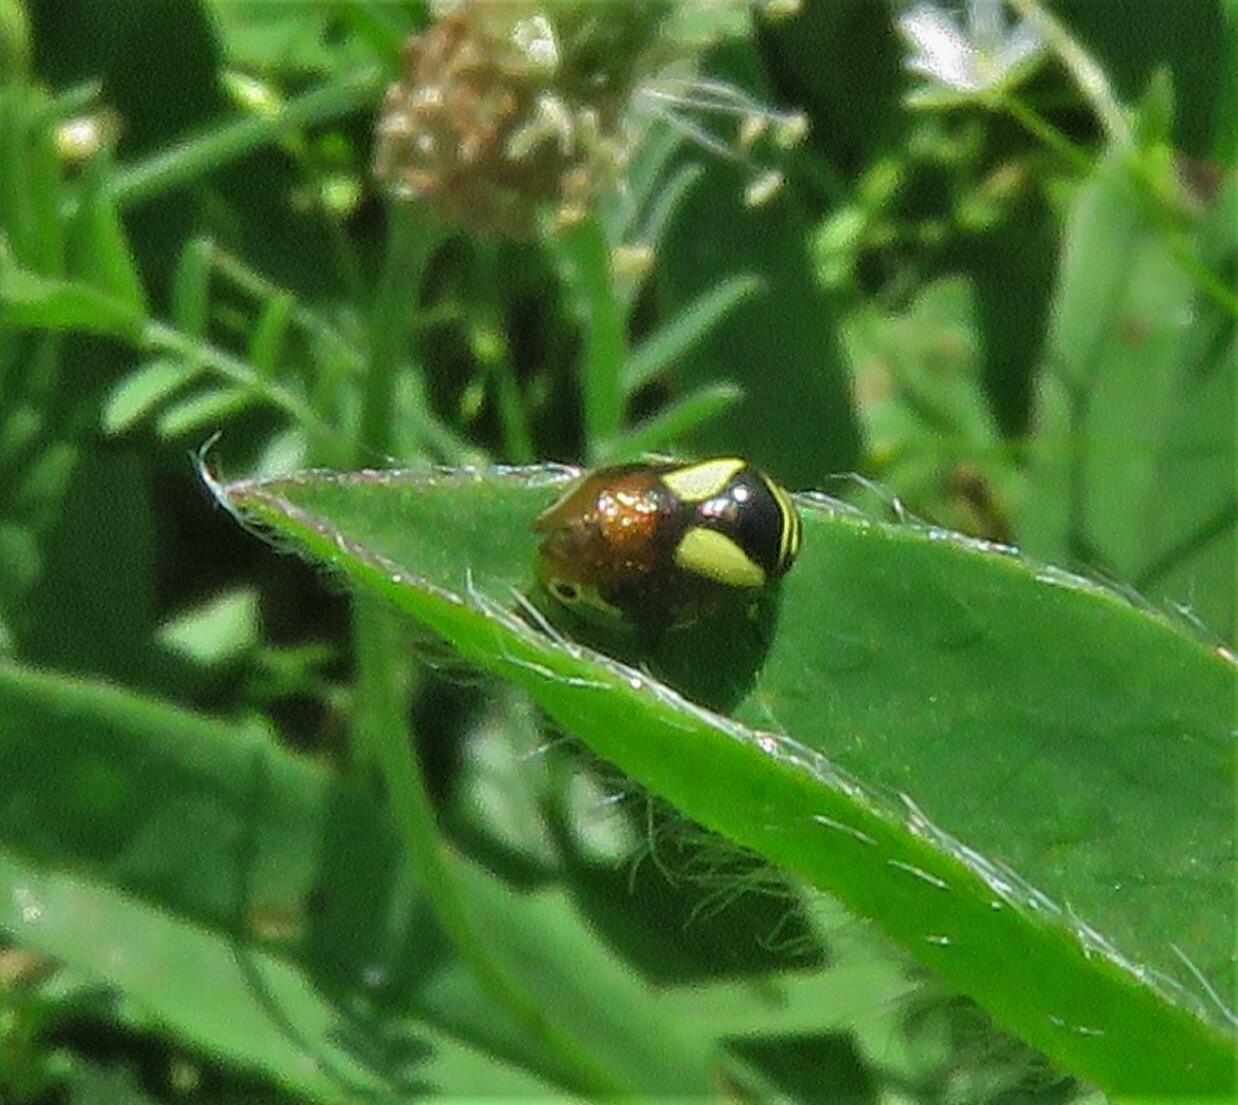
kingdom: Animalia
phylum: Arthropoda
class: Insecta
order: Hemiptera
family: Clastopteridae
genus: Clastoptera
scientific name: Clastoptera proteus
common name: Dogwood spittlebug
